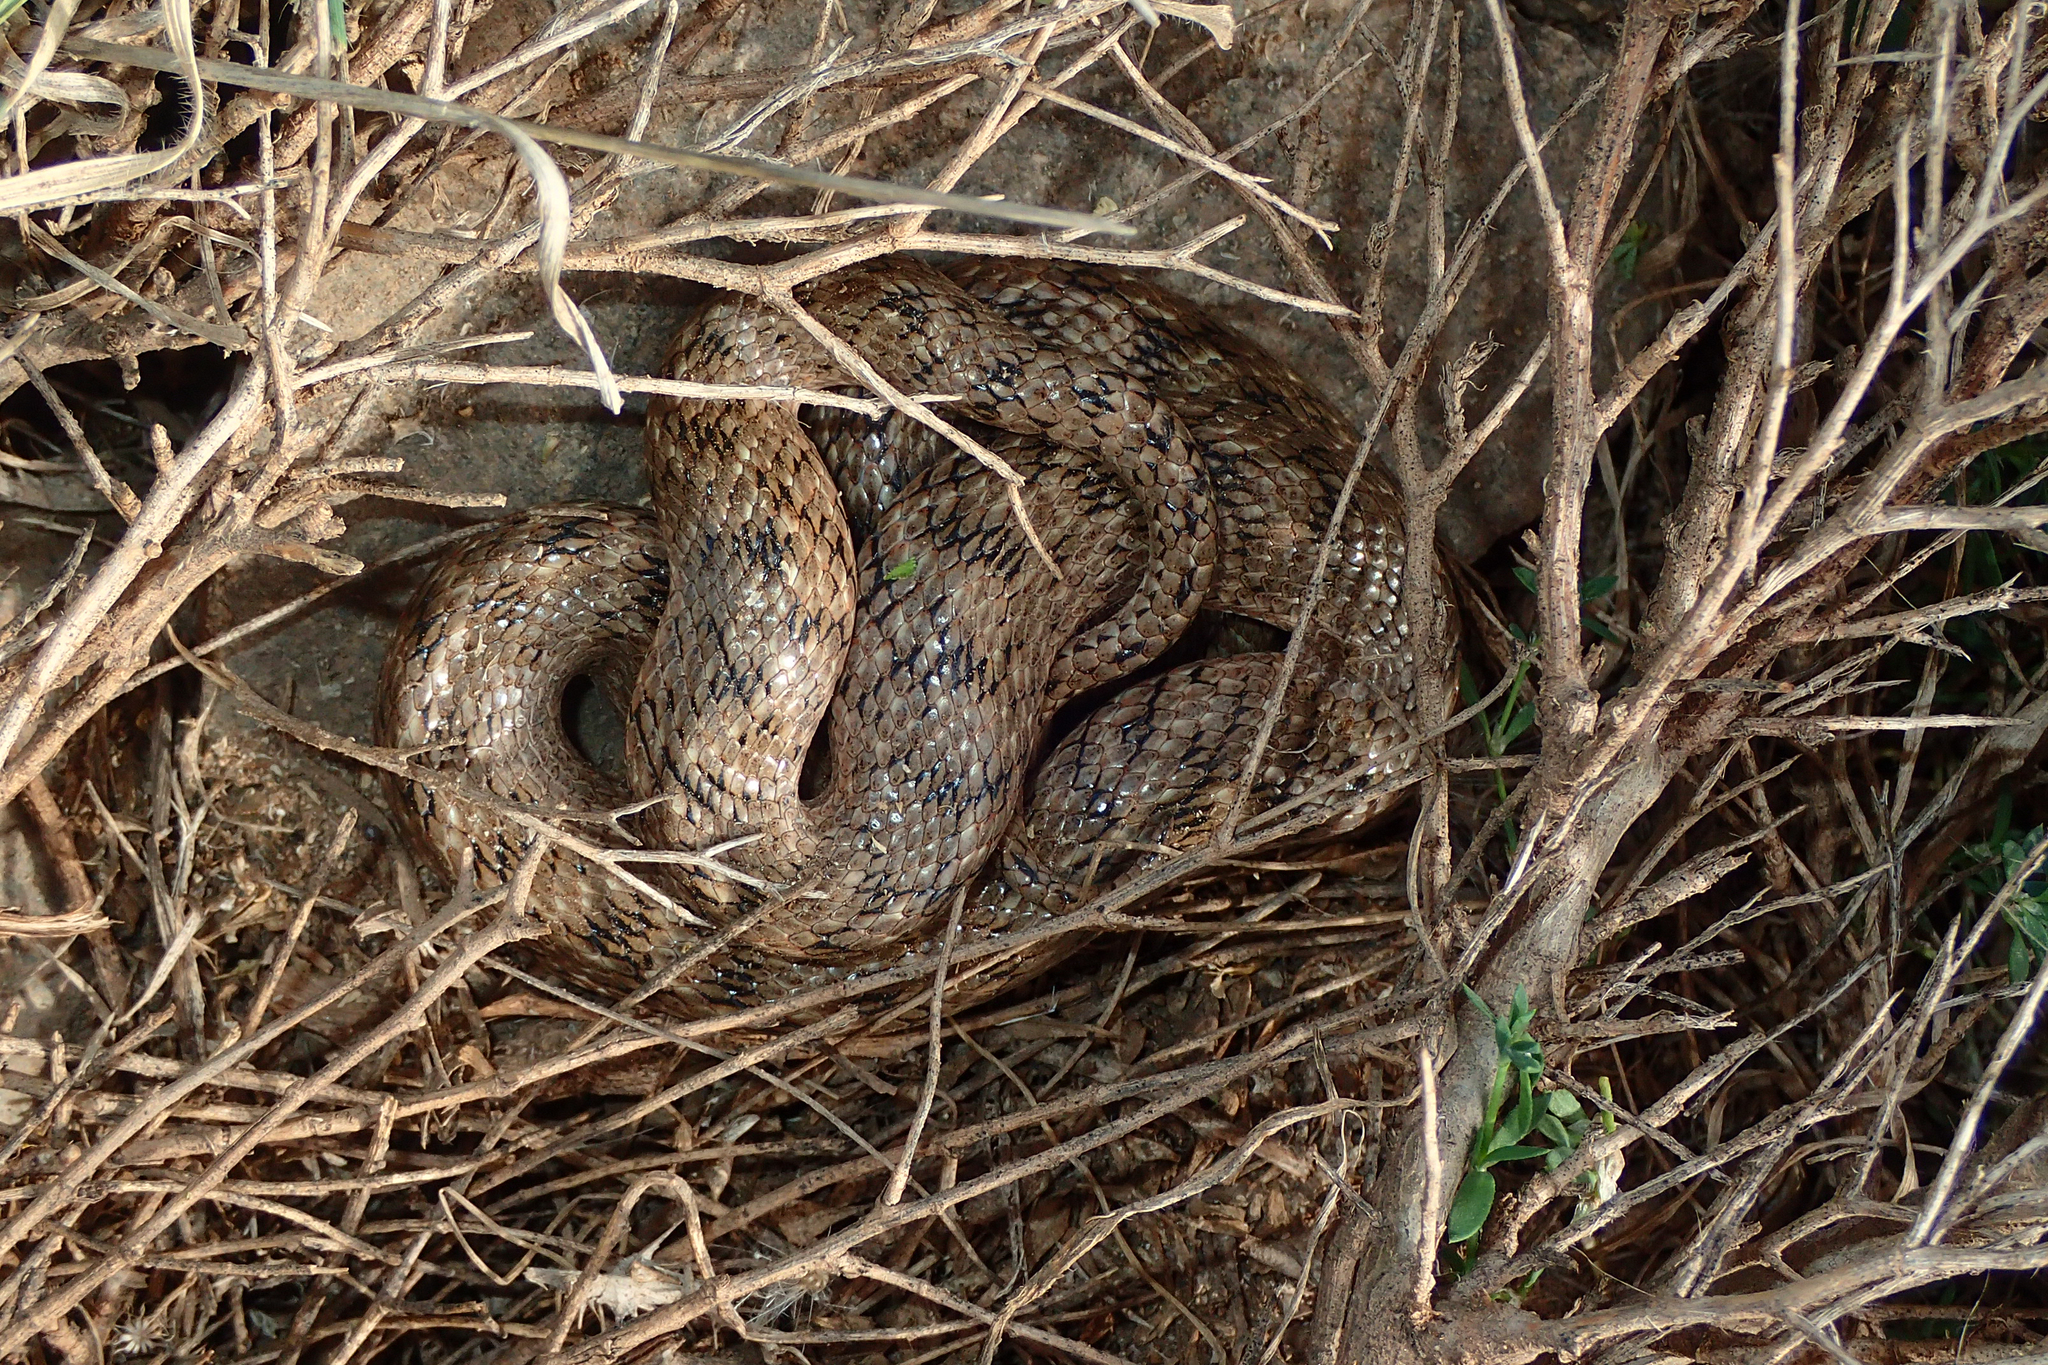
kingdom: Animalia
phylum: Chordata
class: Squamata
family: Colubridae
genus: Macroprotodon
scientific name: Macroprotodon brevis
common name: Iberian false smooth snake
